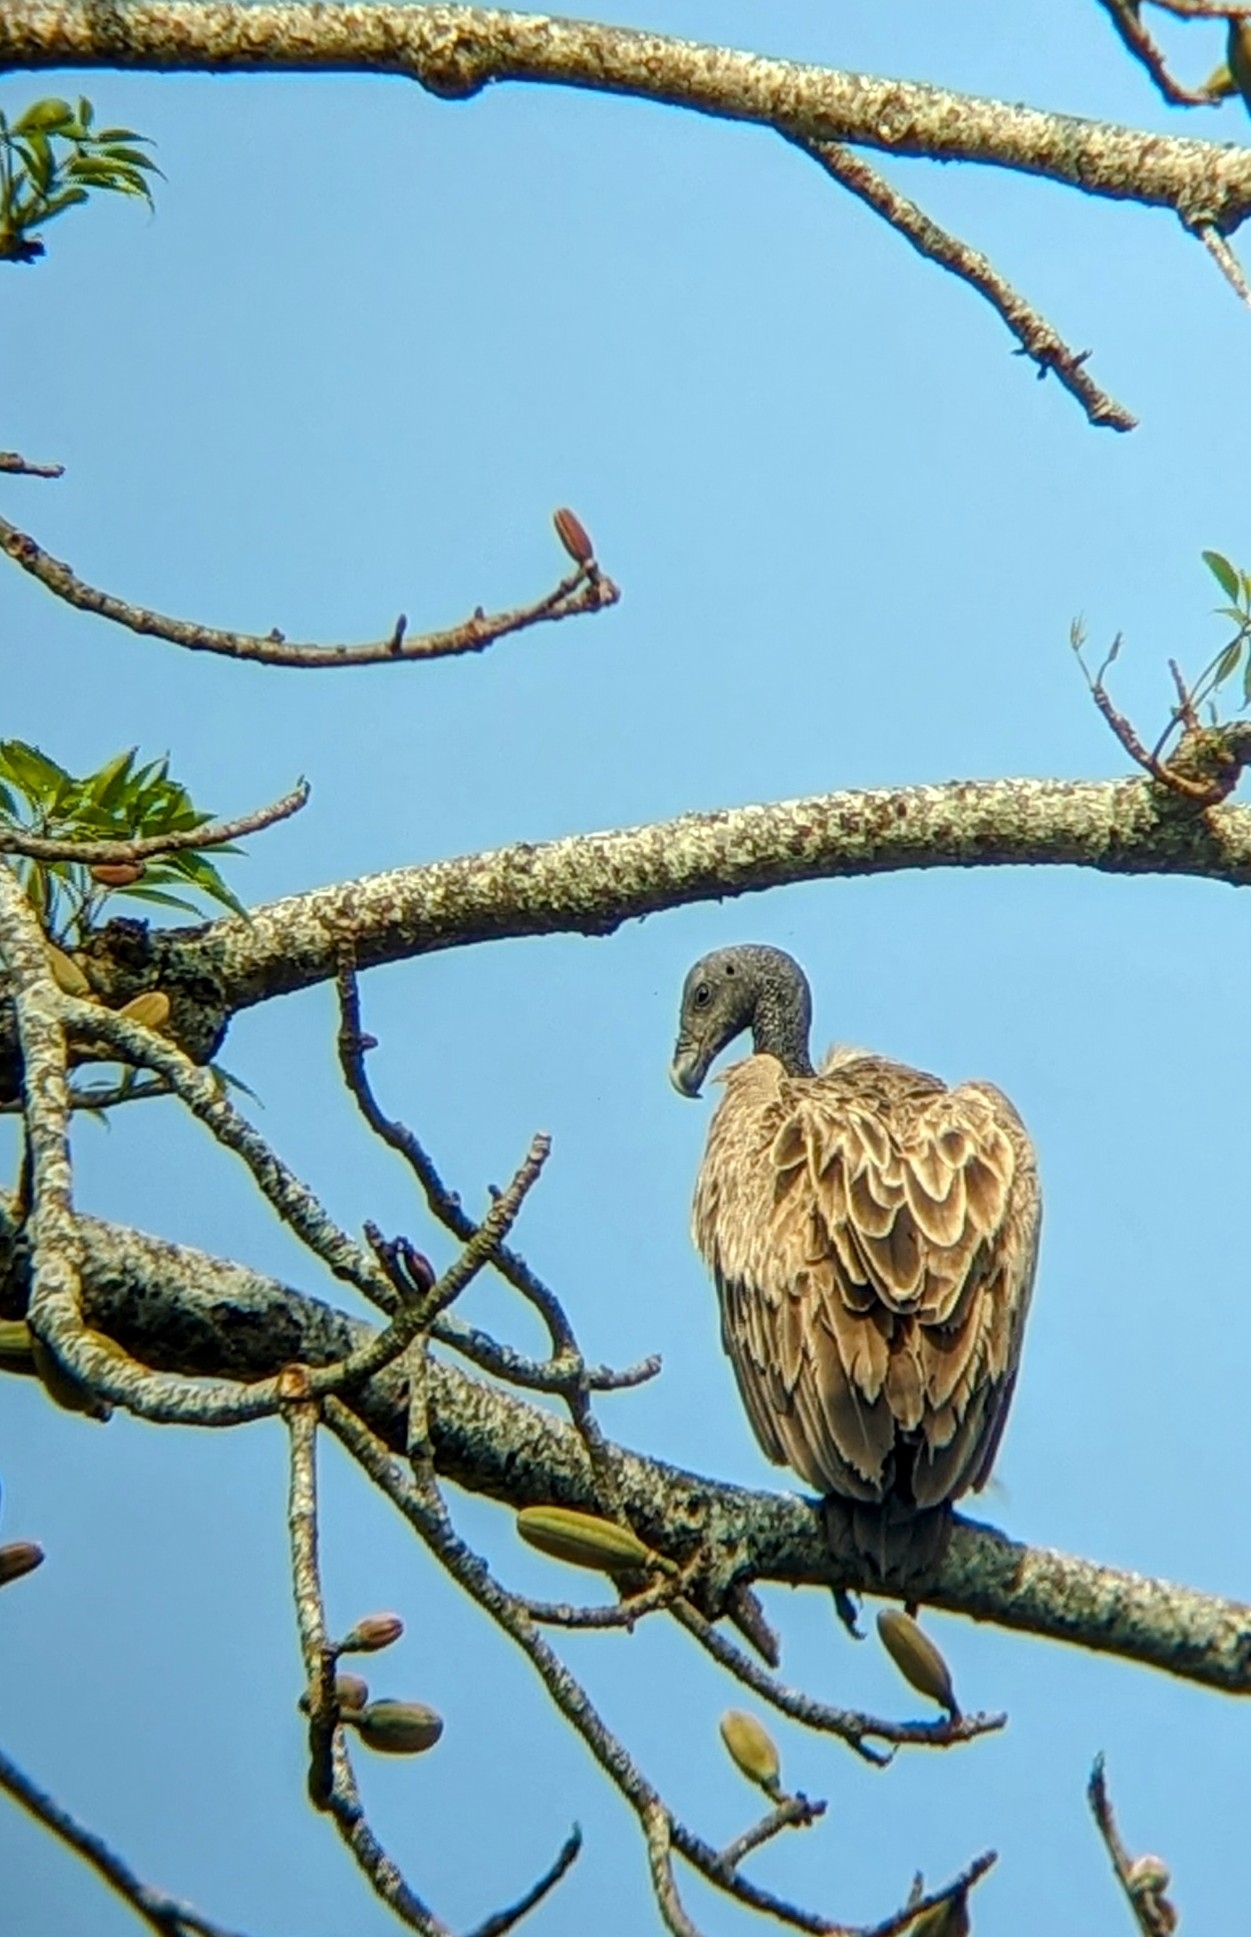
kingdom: Animalia
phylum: Chordata
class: Aves
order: Accipitriformes
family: Accipitridae
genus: Gyps
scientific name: Gyps tenuirostris
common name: Slender-billed vulture
